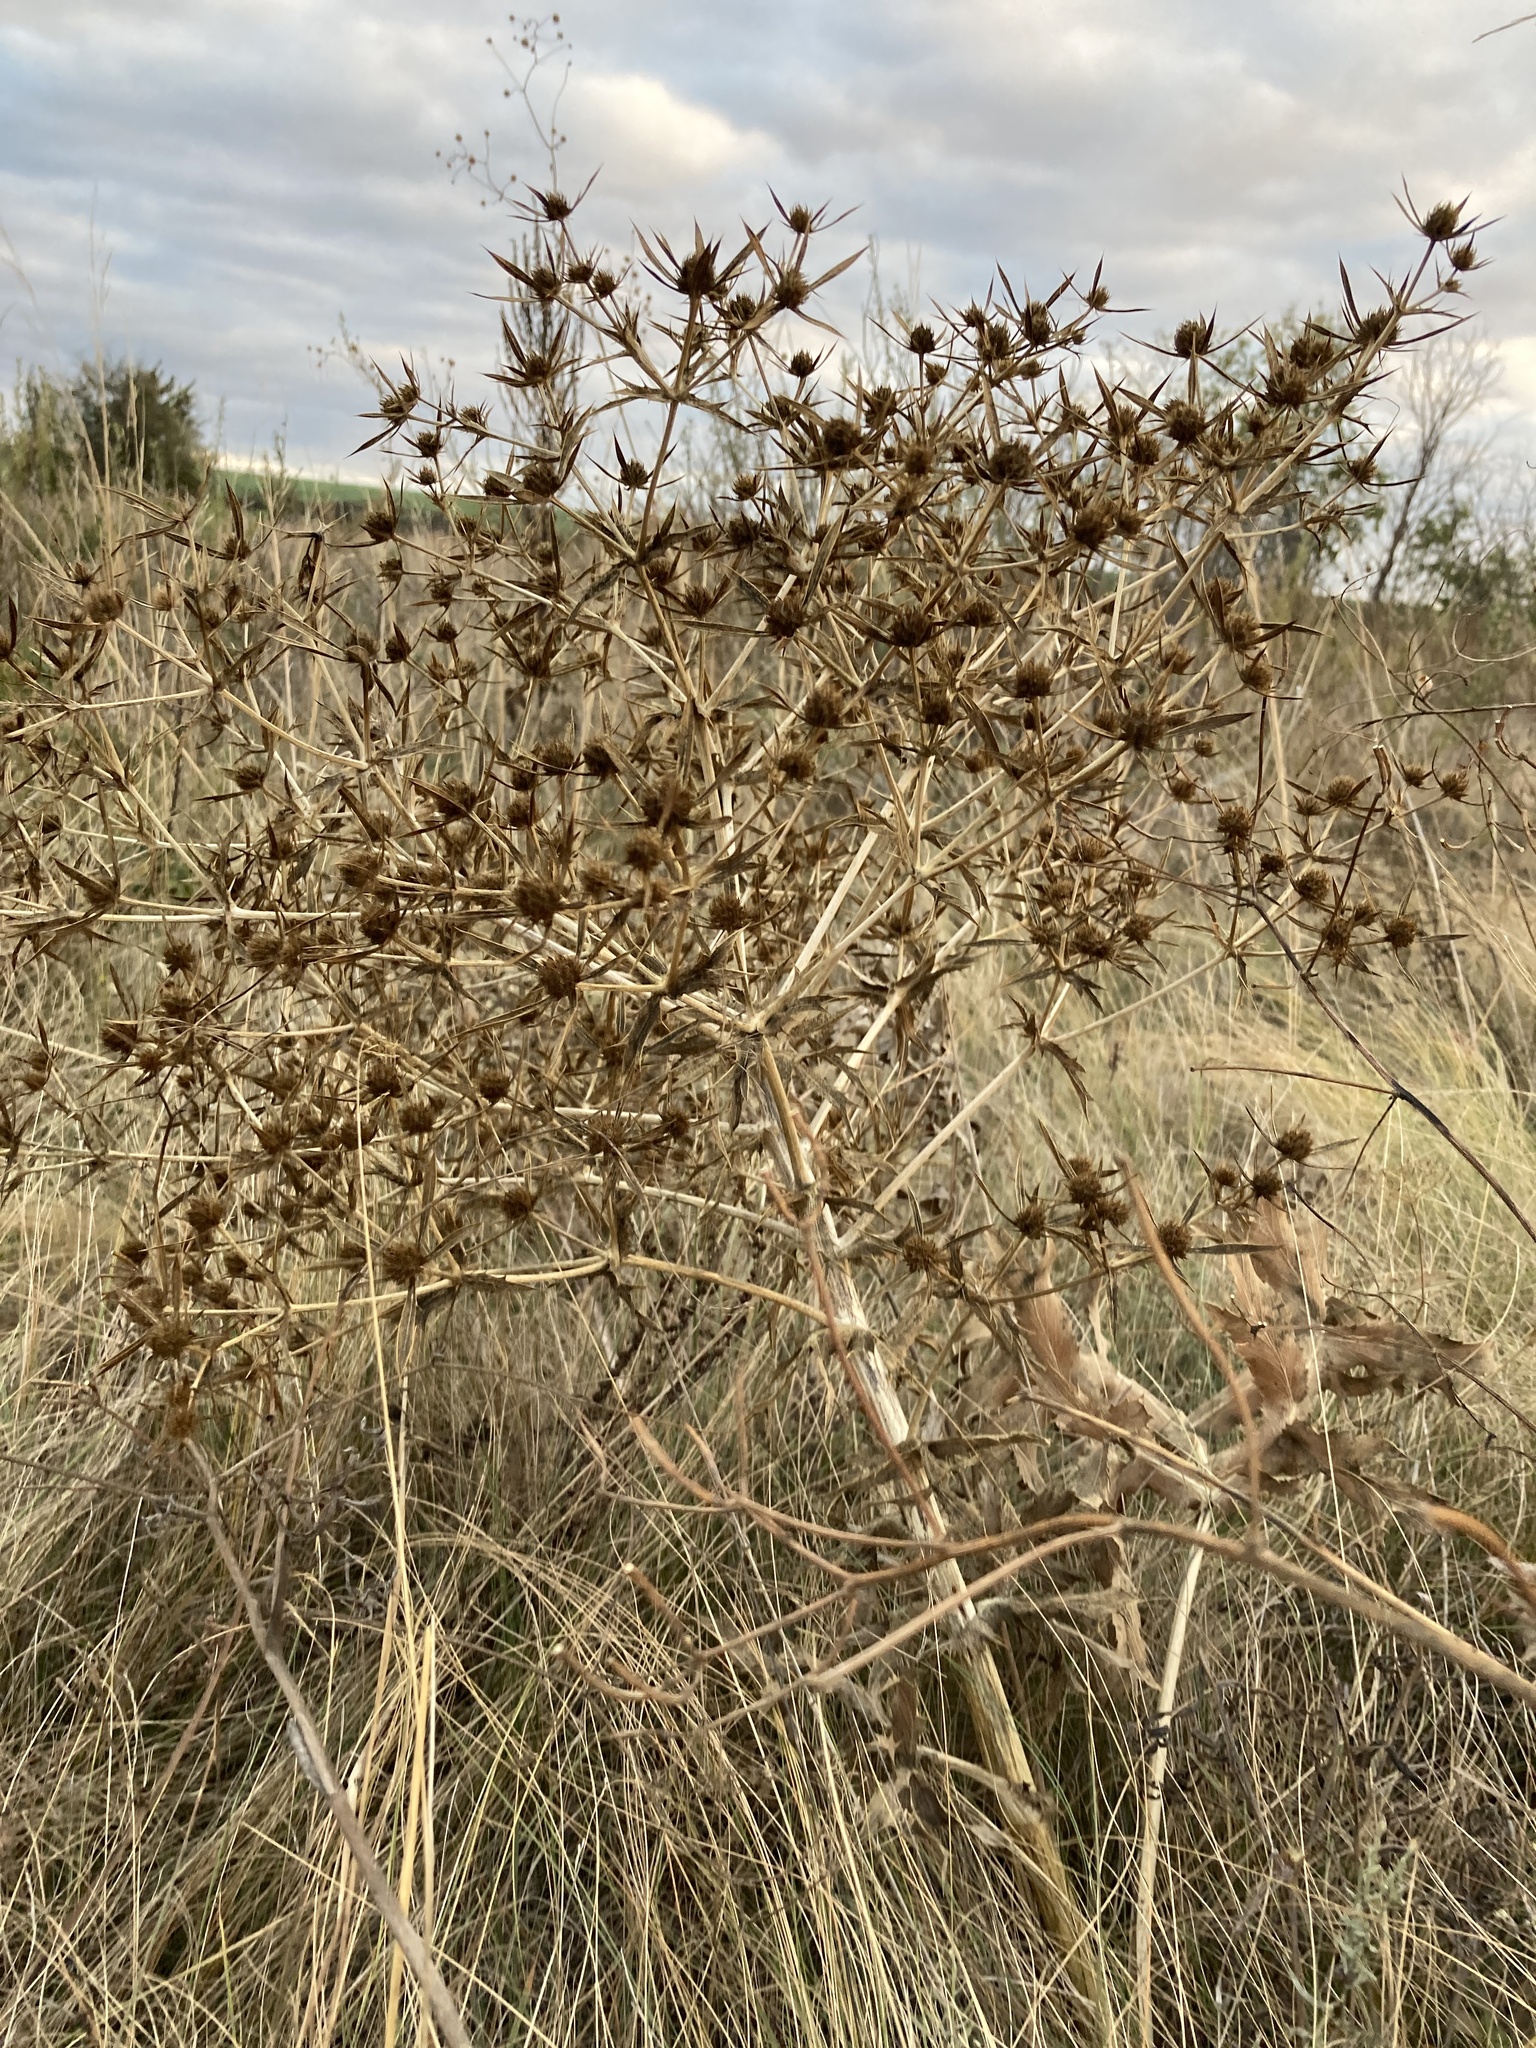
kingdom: Plantae
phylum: Tracheophyta
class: Magnoliopsida
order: Apiales
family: Apiaceae
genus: Eryngium
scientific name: Eryngium campestre
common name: Field eryngo
